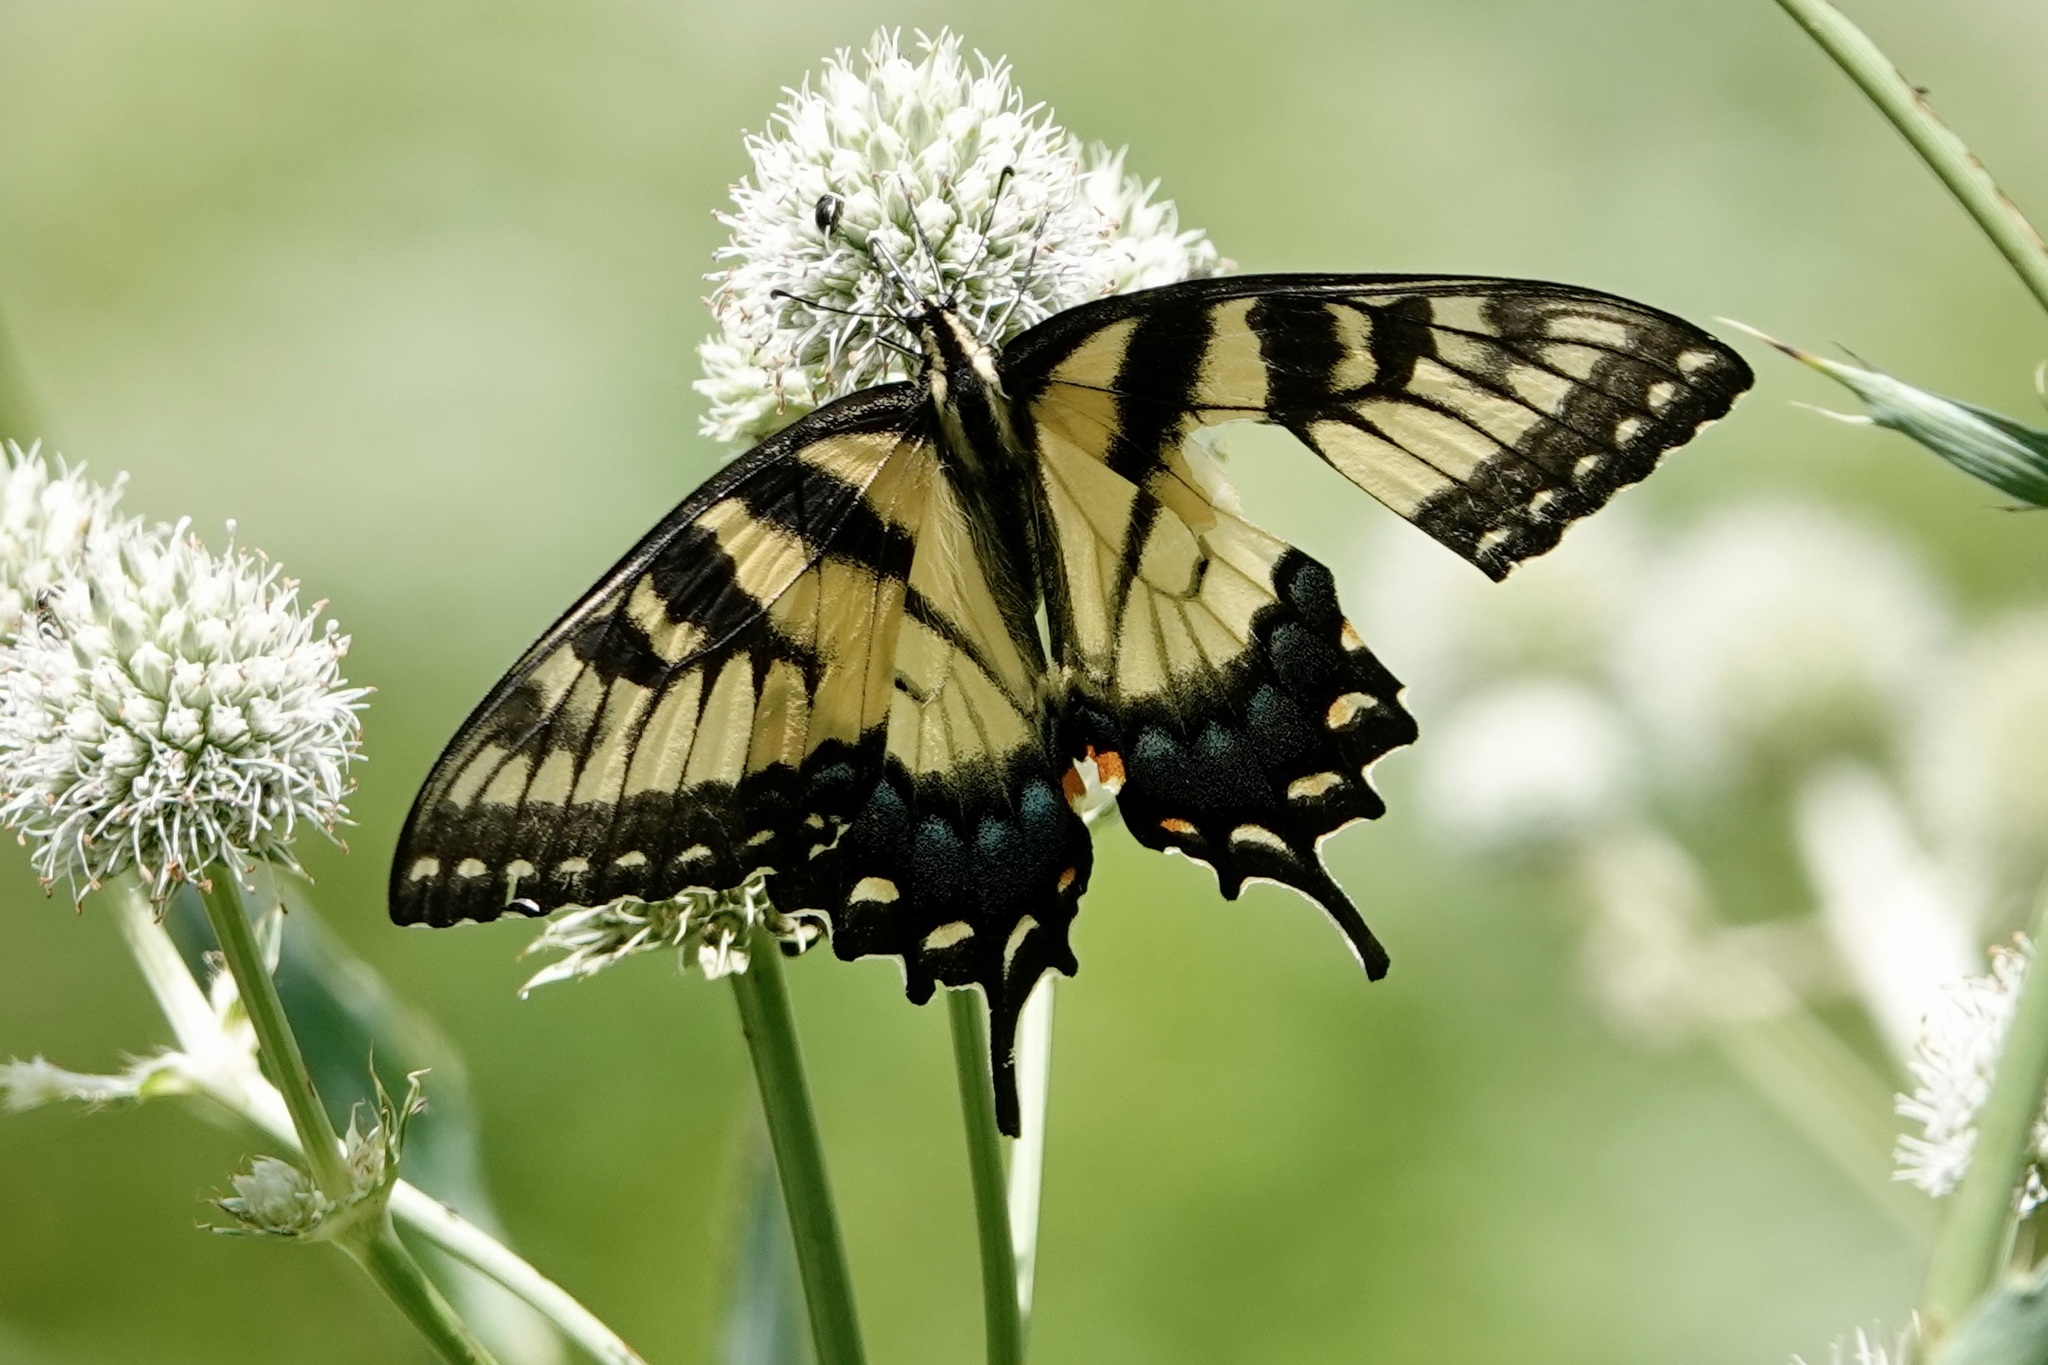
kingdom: Animalia
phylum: Arthropoda
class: Insecta
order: Lepidoptera
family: Papilionidae
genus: Papilio
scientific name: Papilio glaucus
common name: Tiger swallowtail
